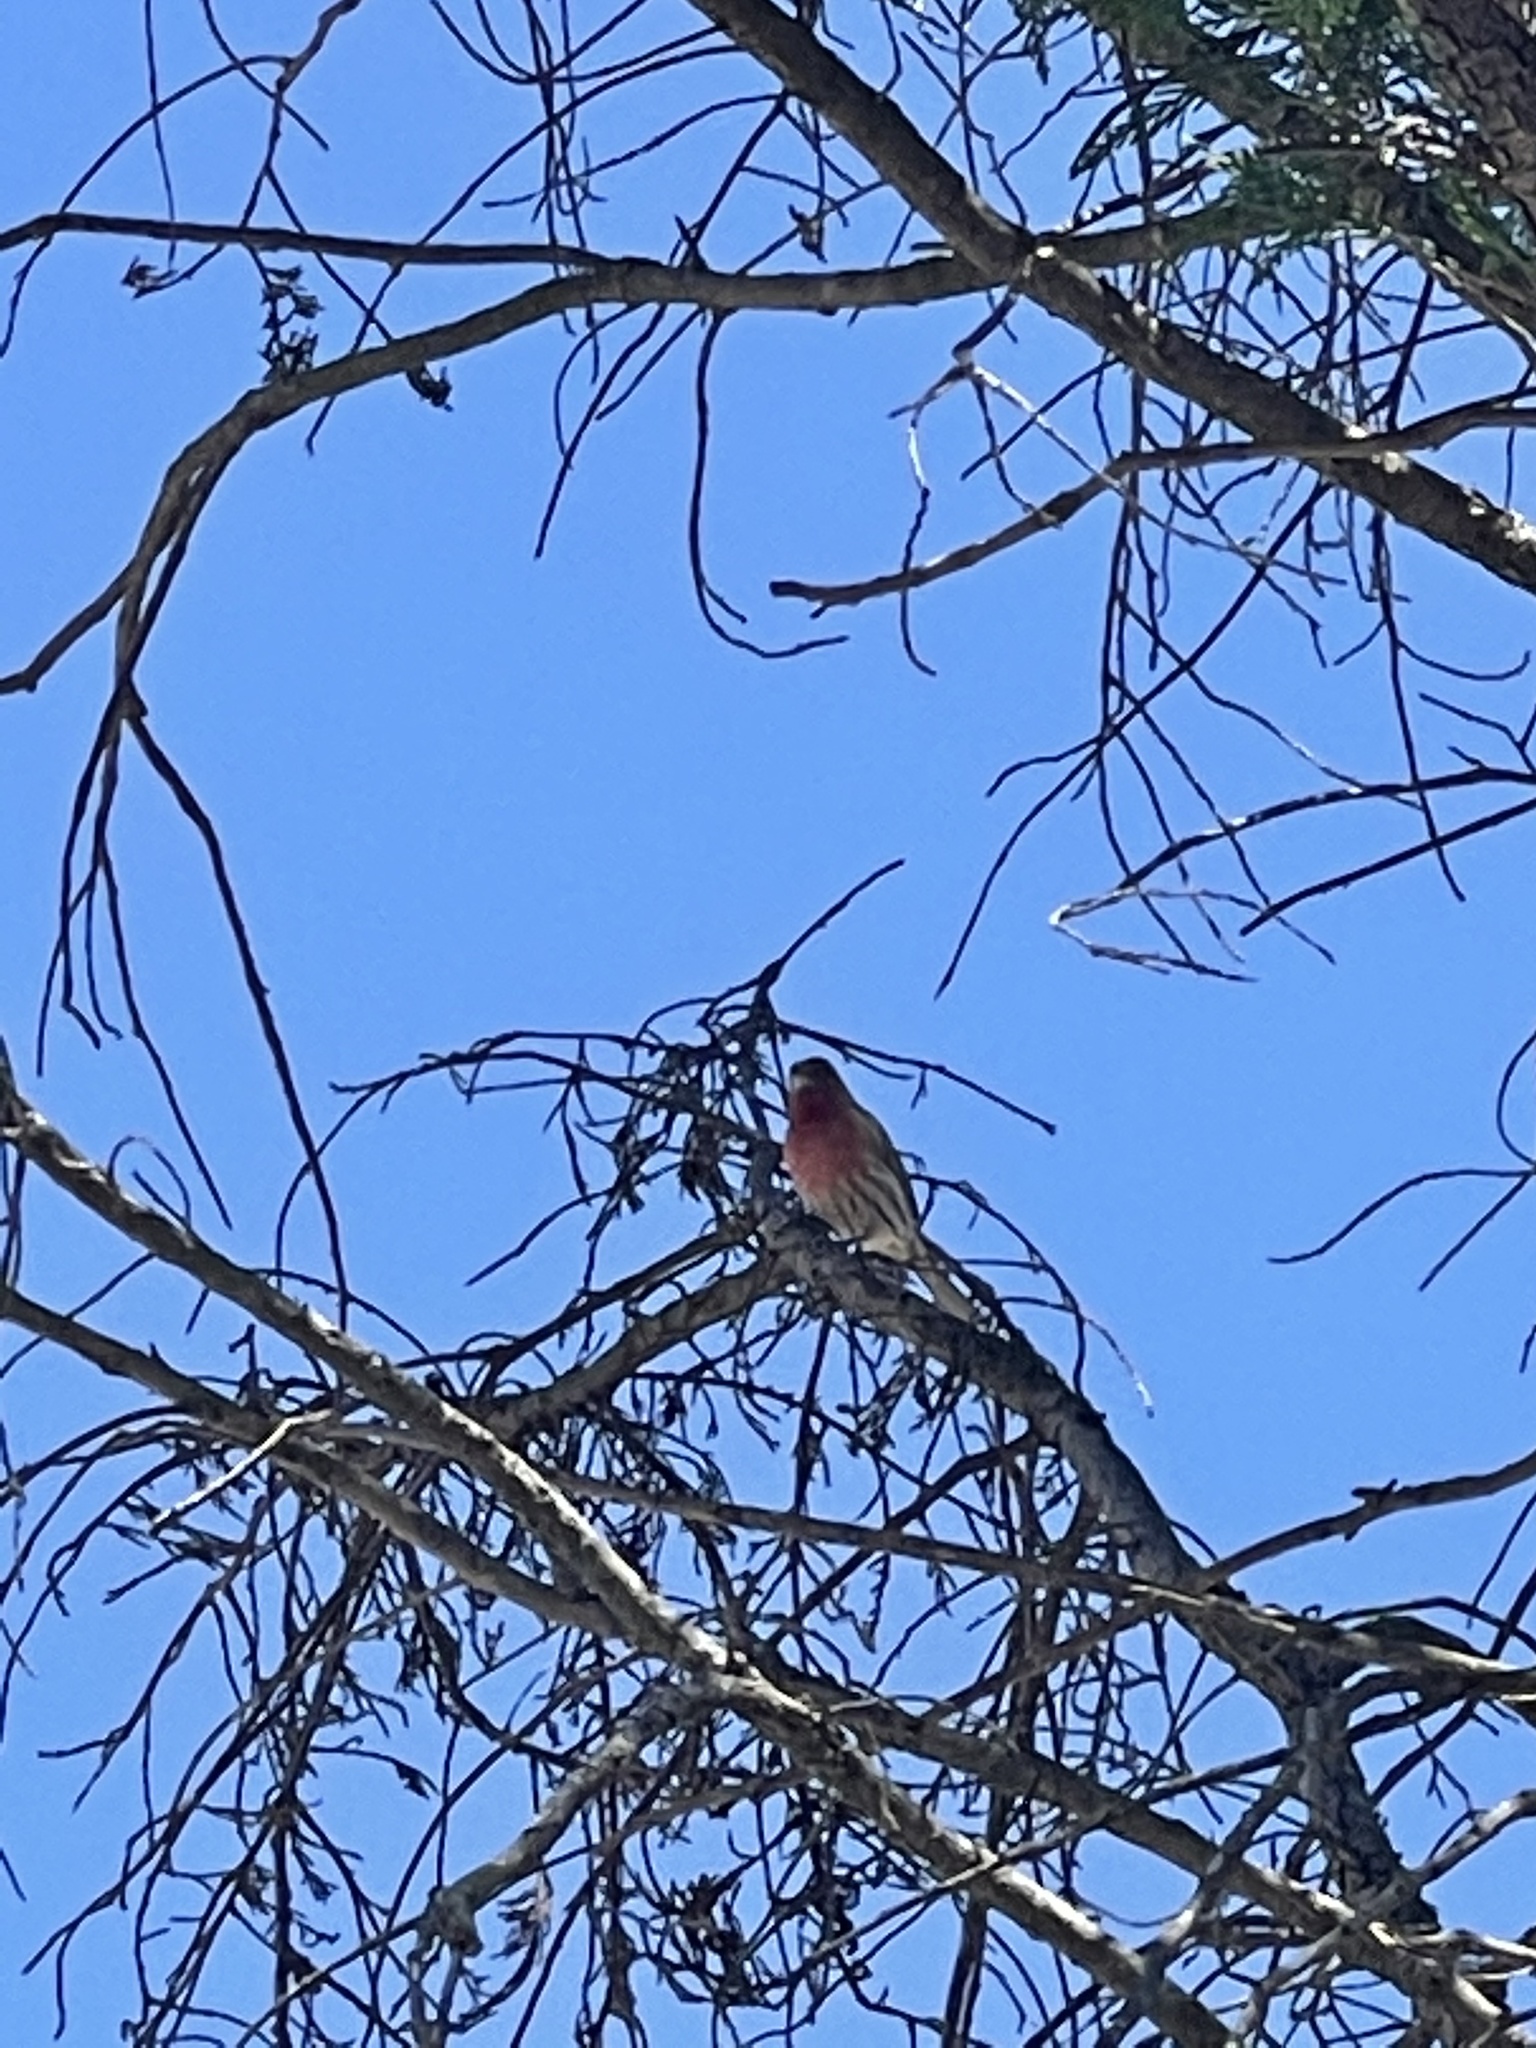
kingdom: Animalia
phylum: Chordata
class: Aves
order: Passeriformes
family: Fringillidae
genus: Haemorhous
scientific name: Haemorhous mexicanus
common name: House finch
